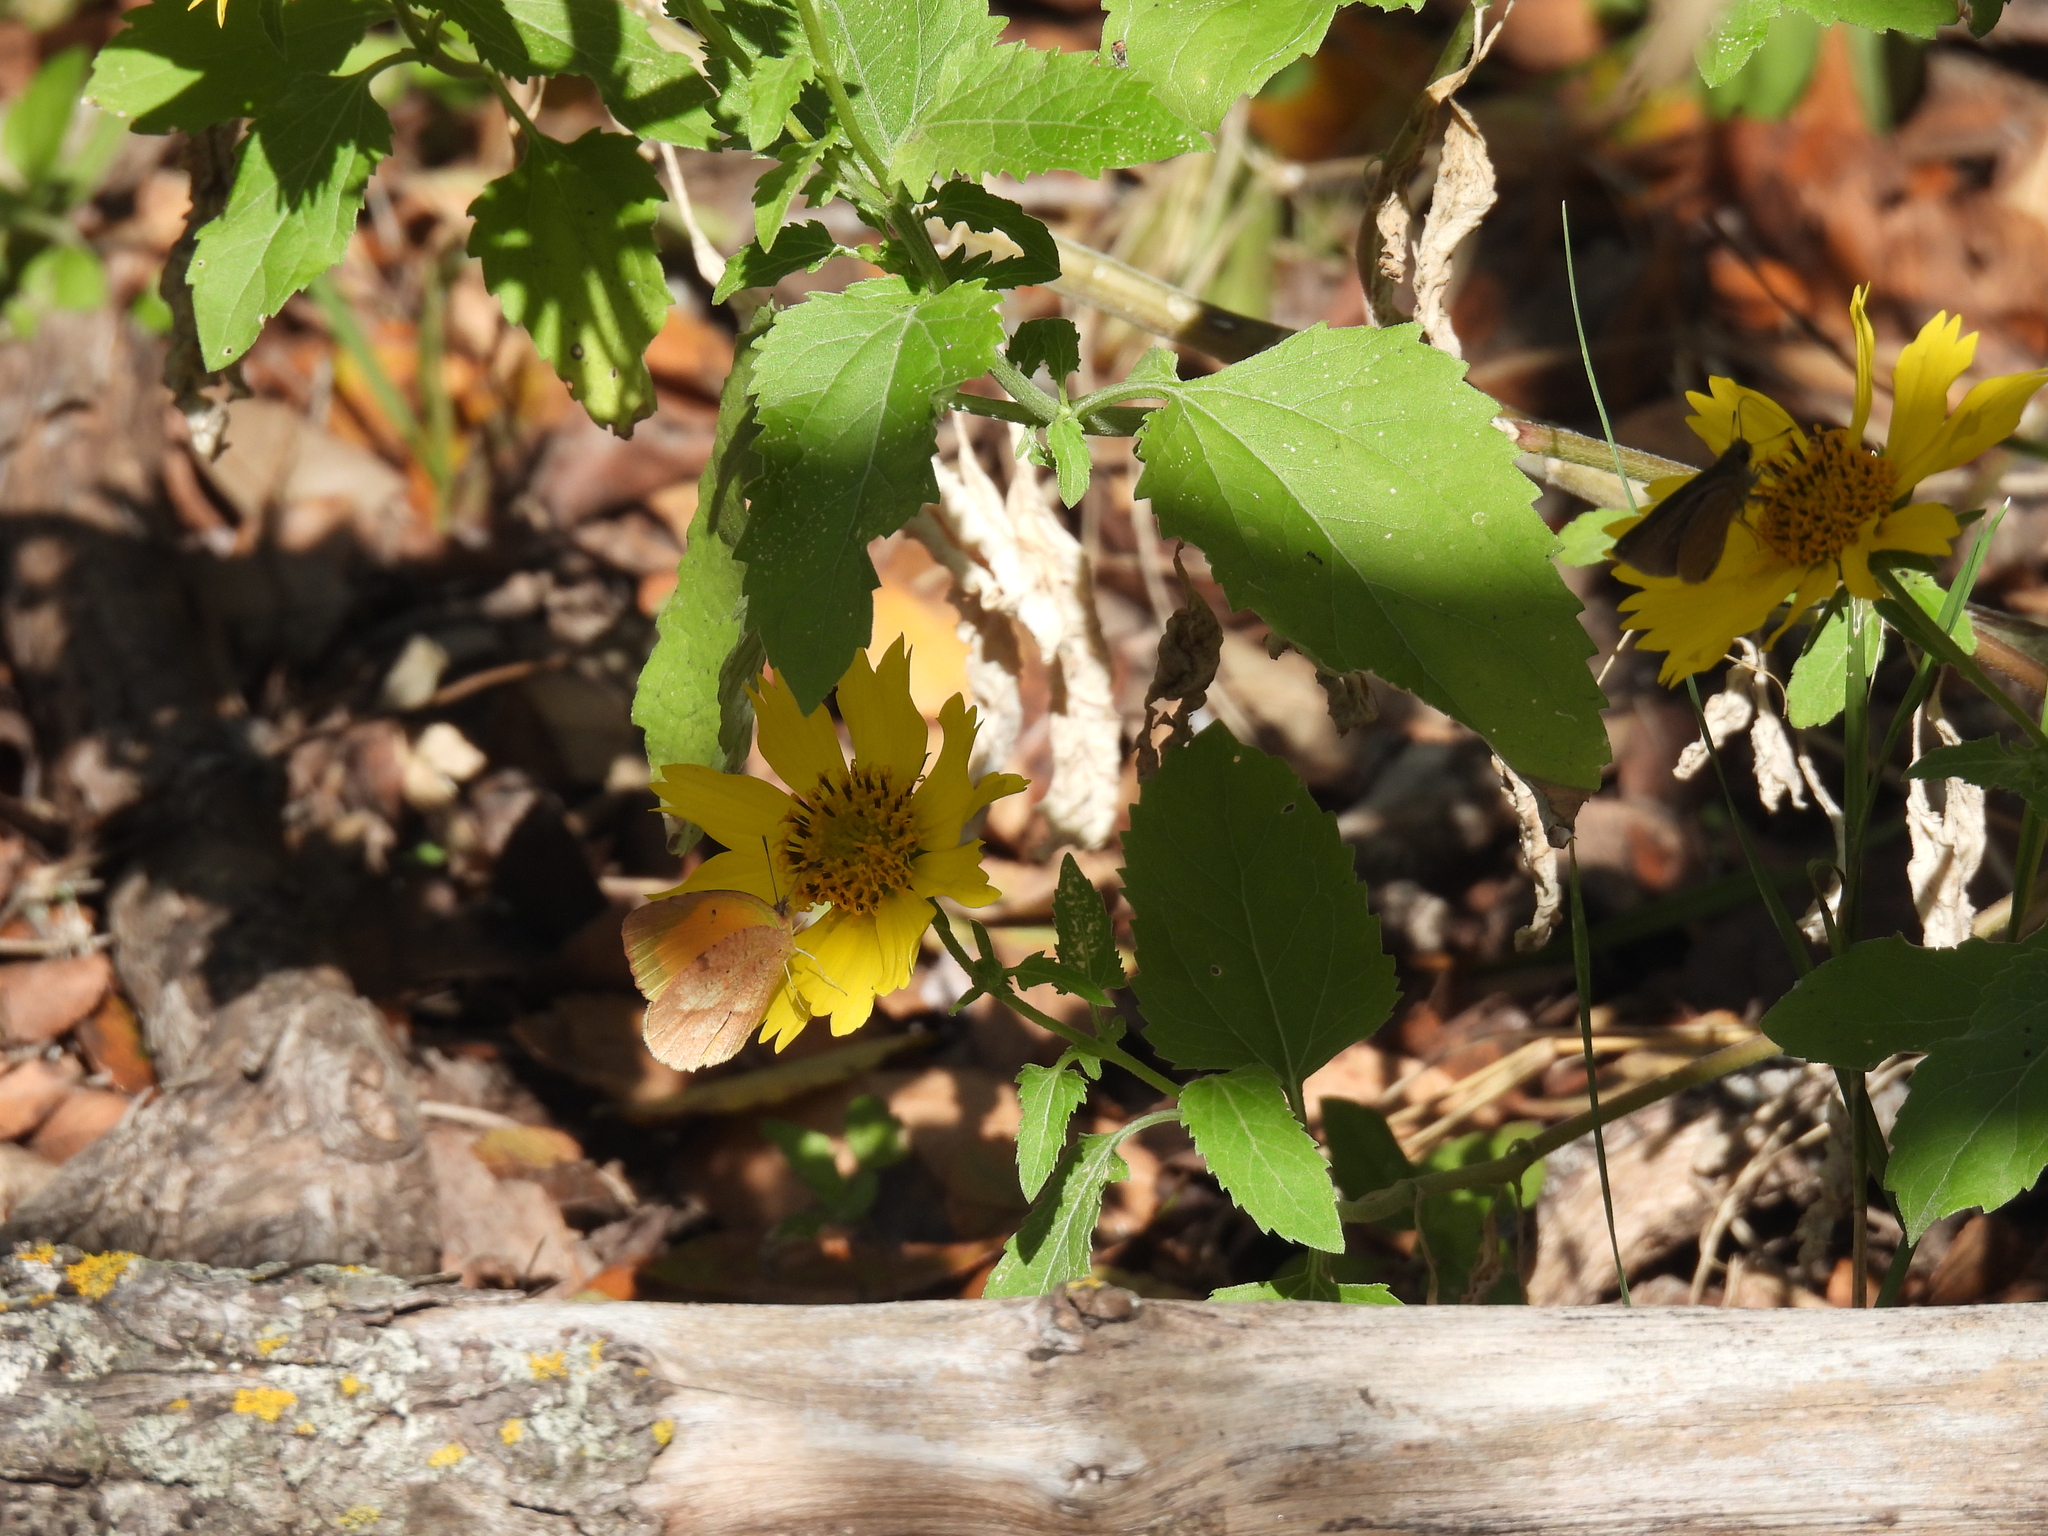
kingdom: Animalia
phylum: Arthropoda
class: Insecta
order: Lepidoptera
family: Pieridae
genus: Abaeis
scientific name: Abaeis nicippe
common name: Sleepy orange
